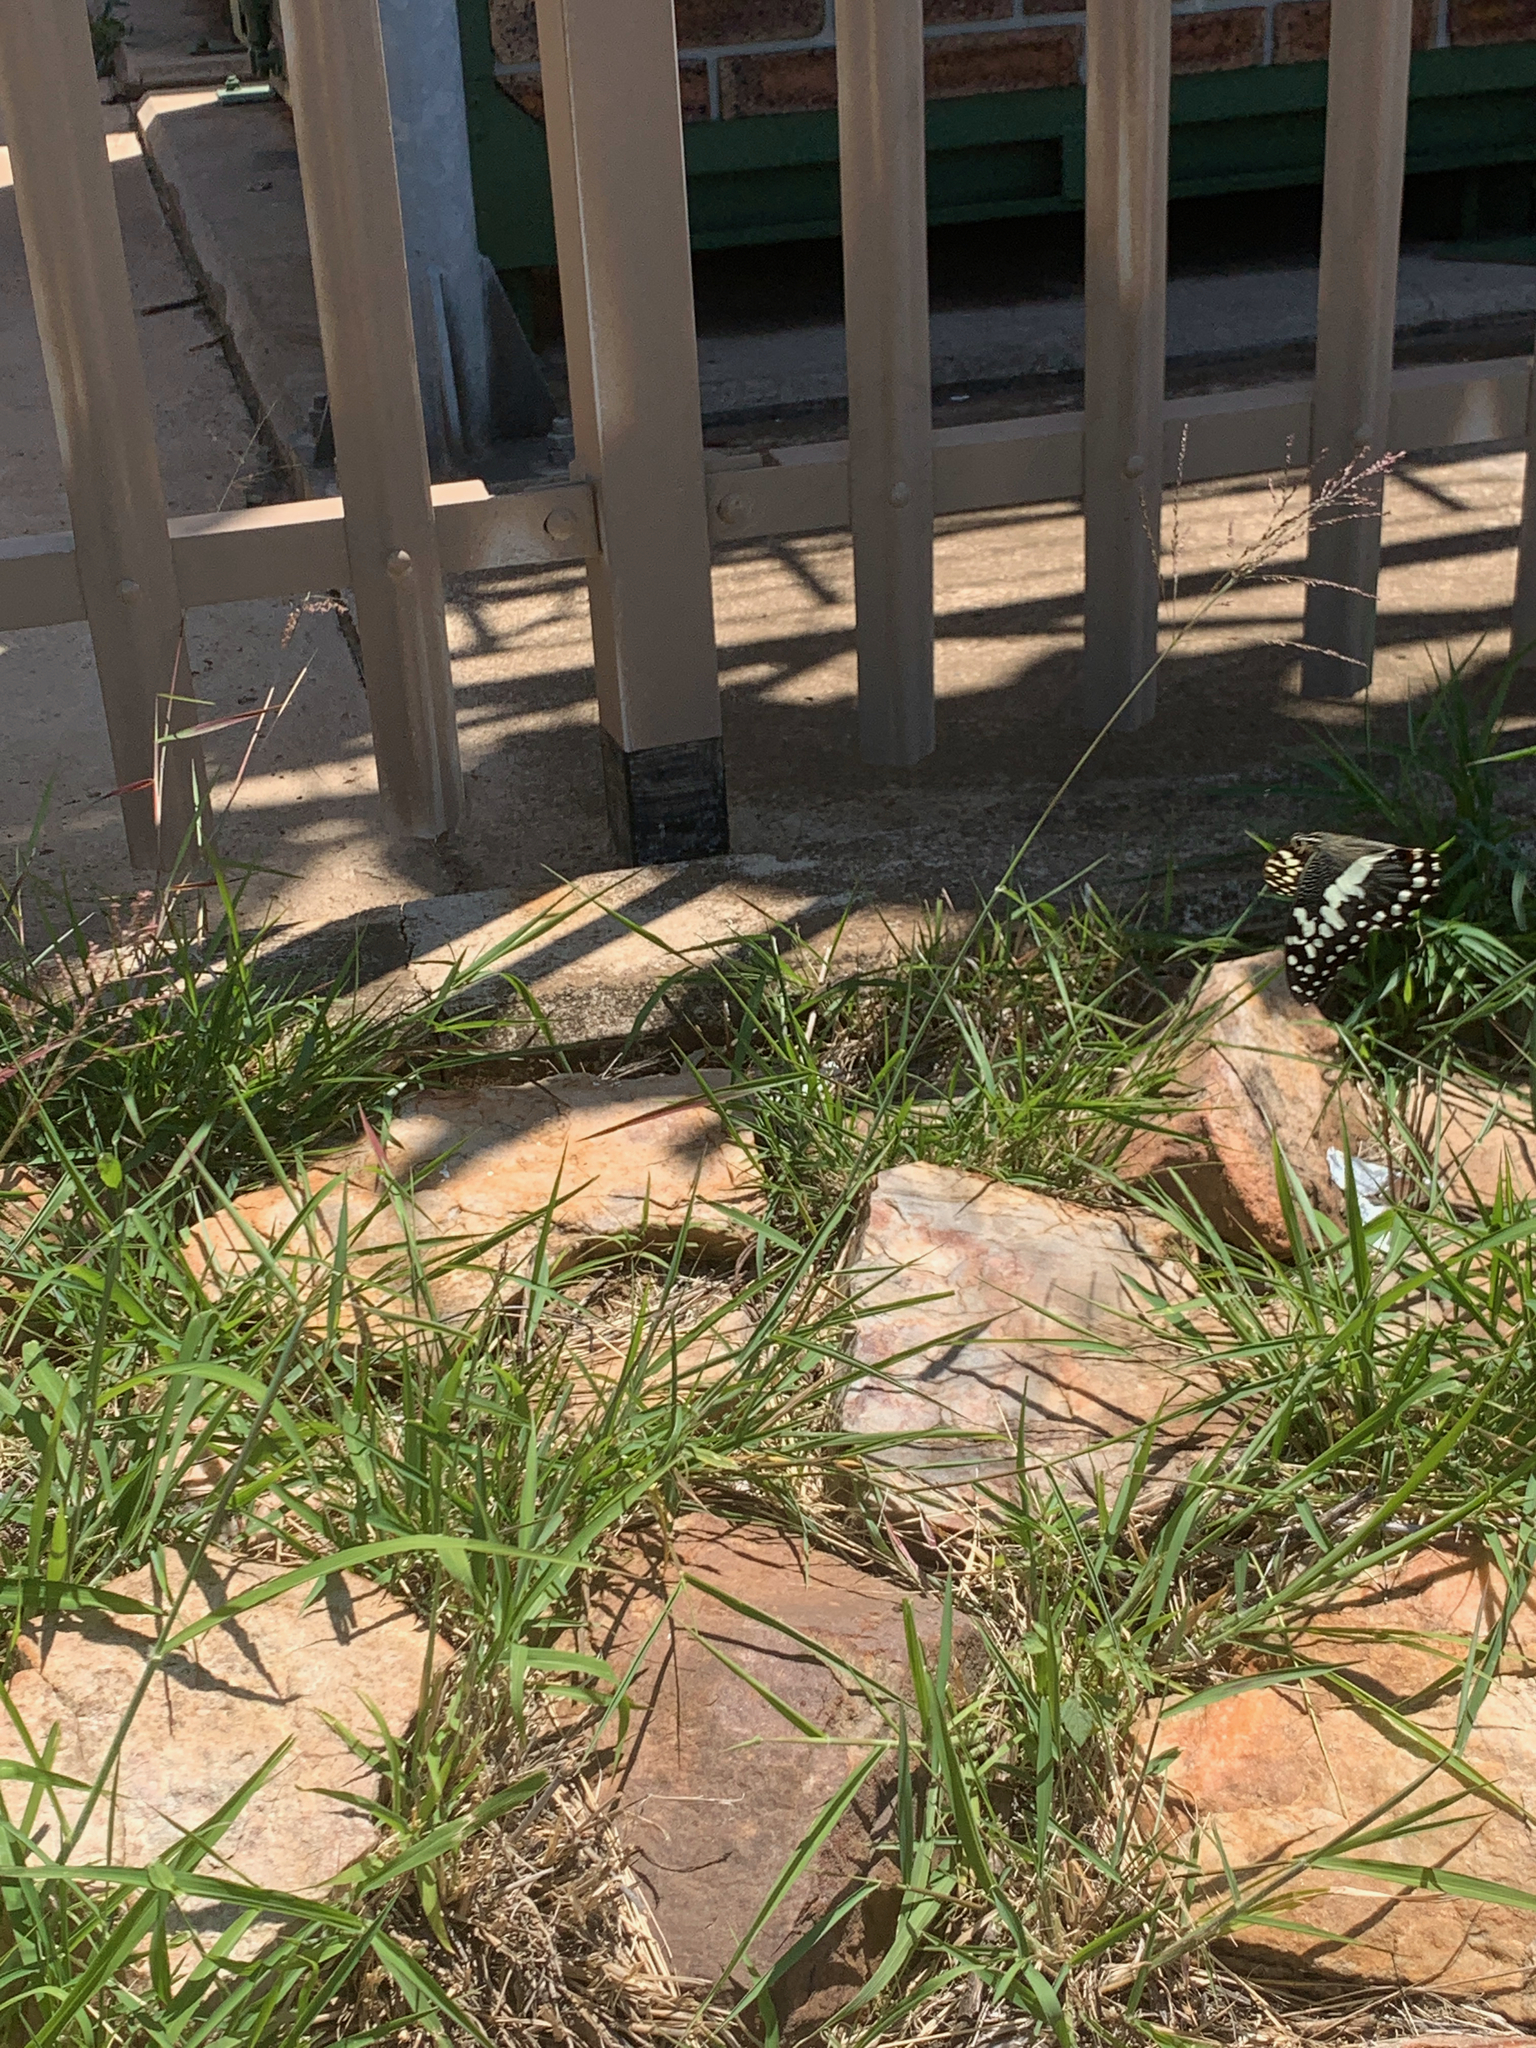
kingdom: Animalia
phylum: Arthropoda
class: Insecta
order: Lepidoptera
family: Papilionidae
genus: Papilio
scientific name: Papilio demodocus
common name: Christmas butterfly
